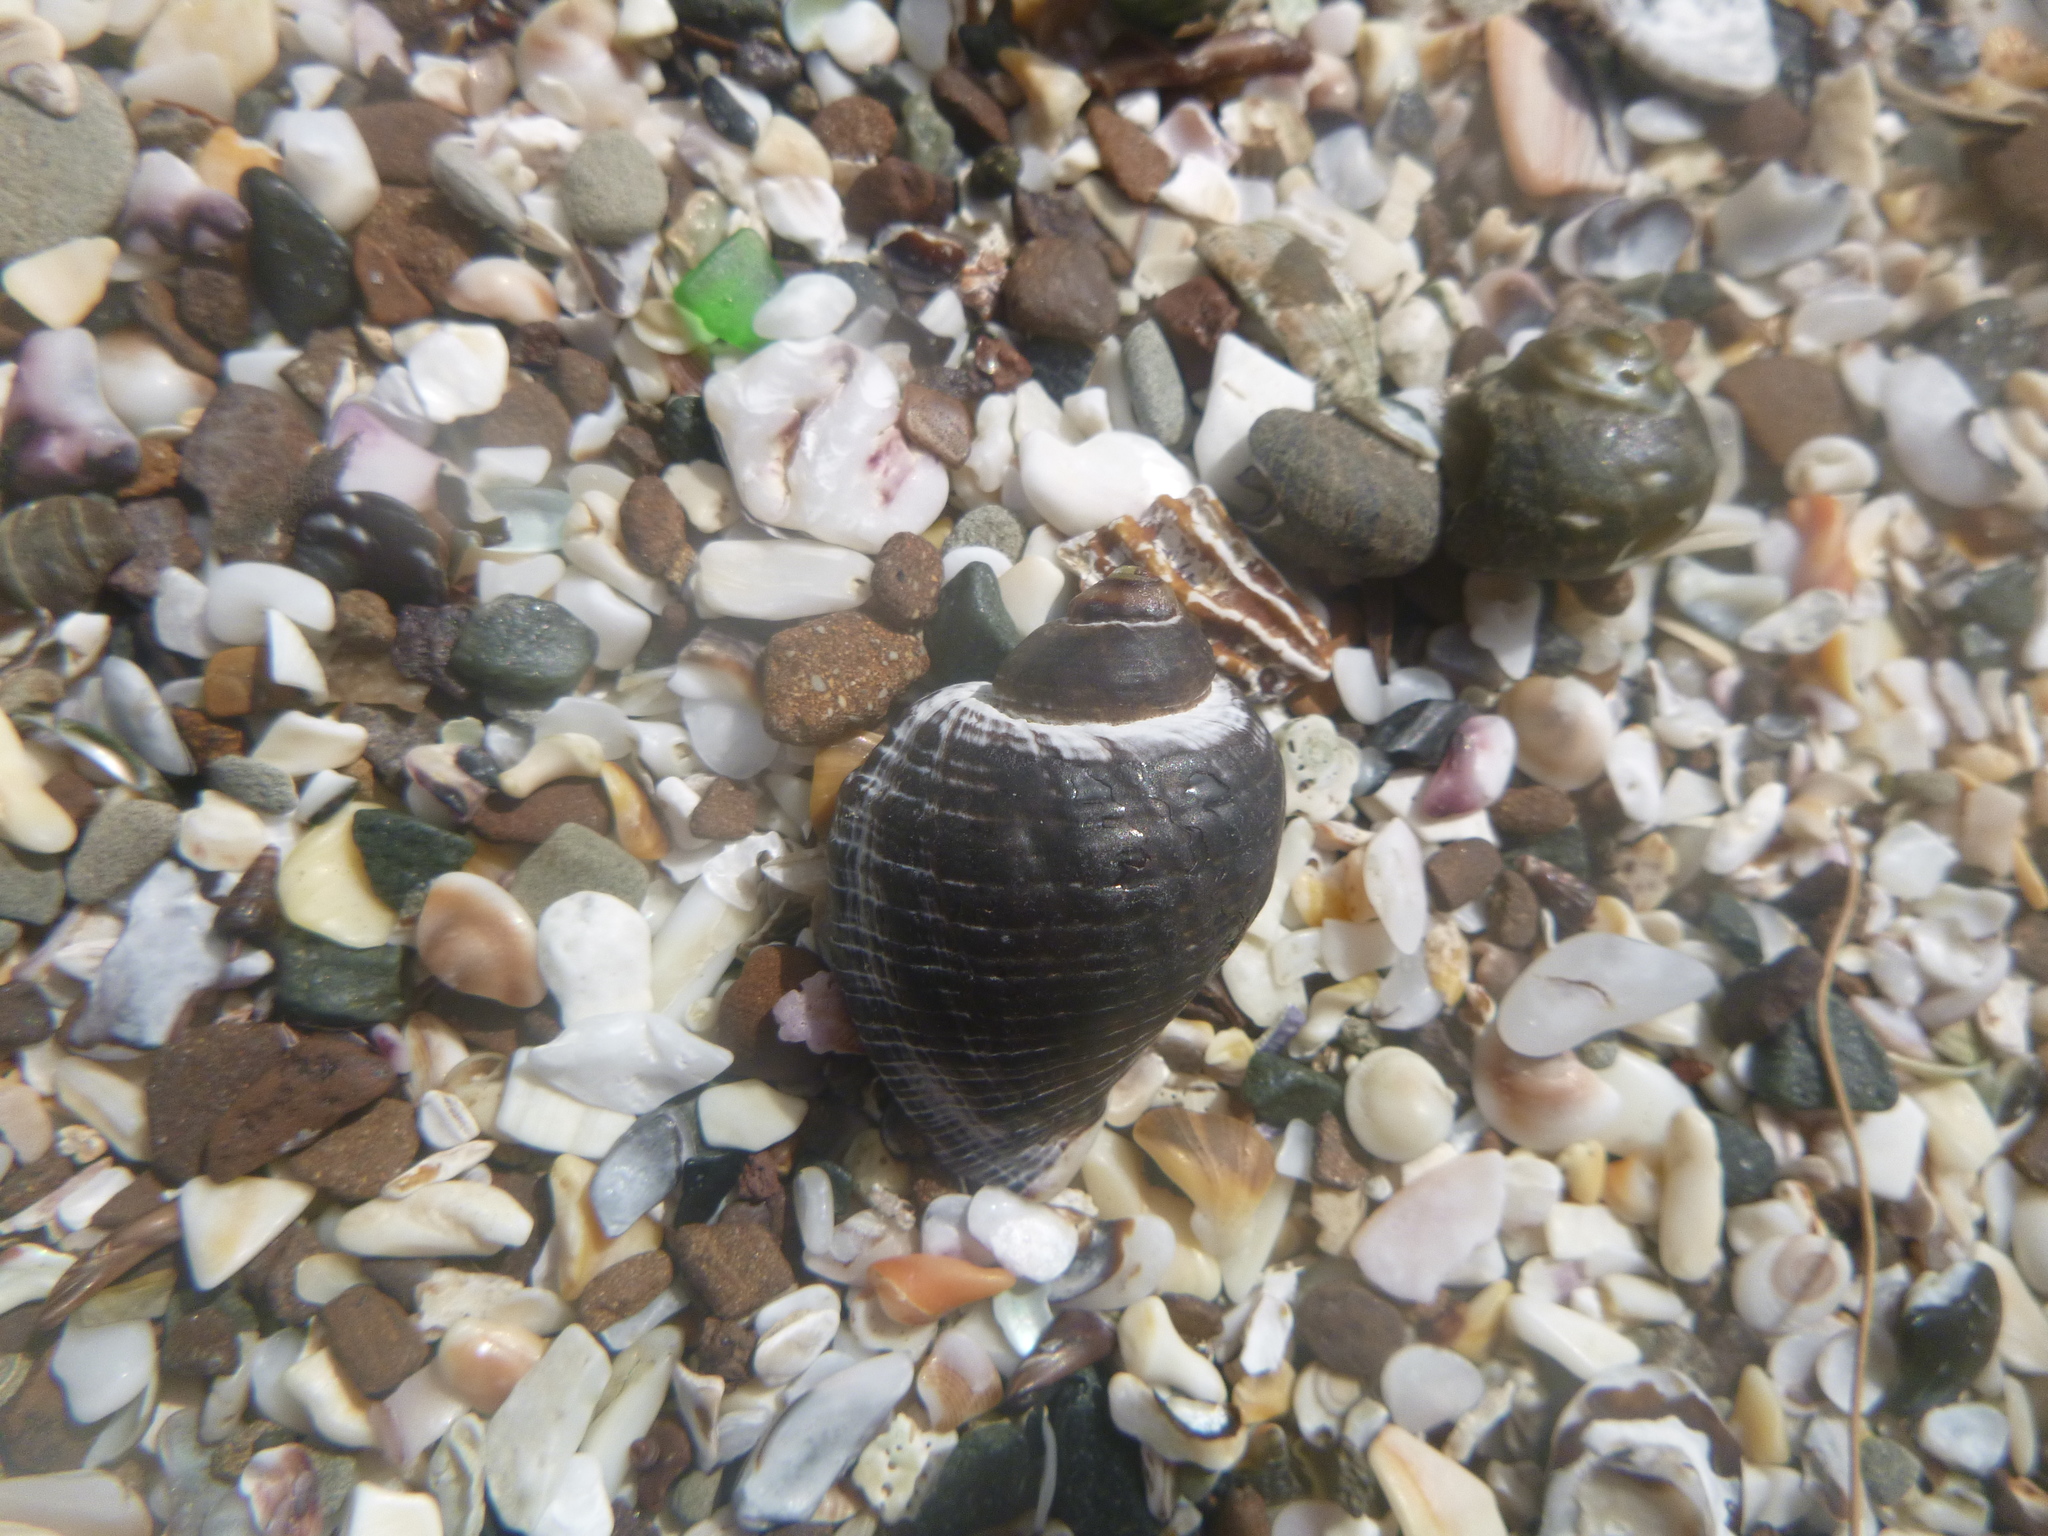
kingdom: Animalia
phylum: Mollusca
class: Gastropoda
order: Neogastropoda
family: Muricidae
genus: Haustrum
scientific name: Haustrum haustorium
